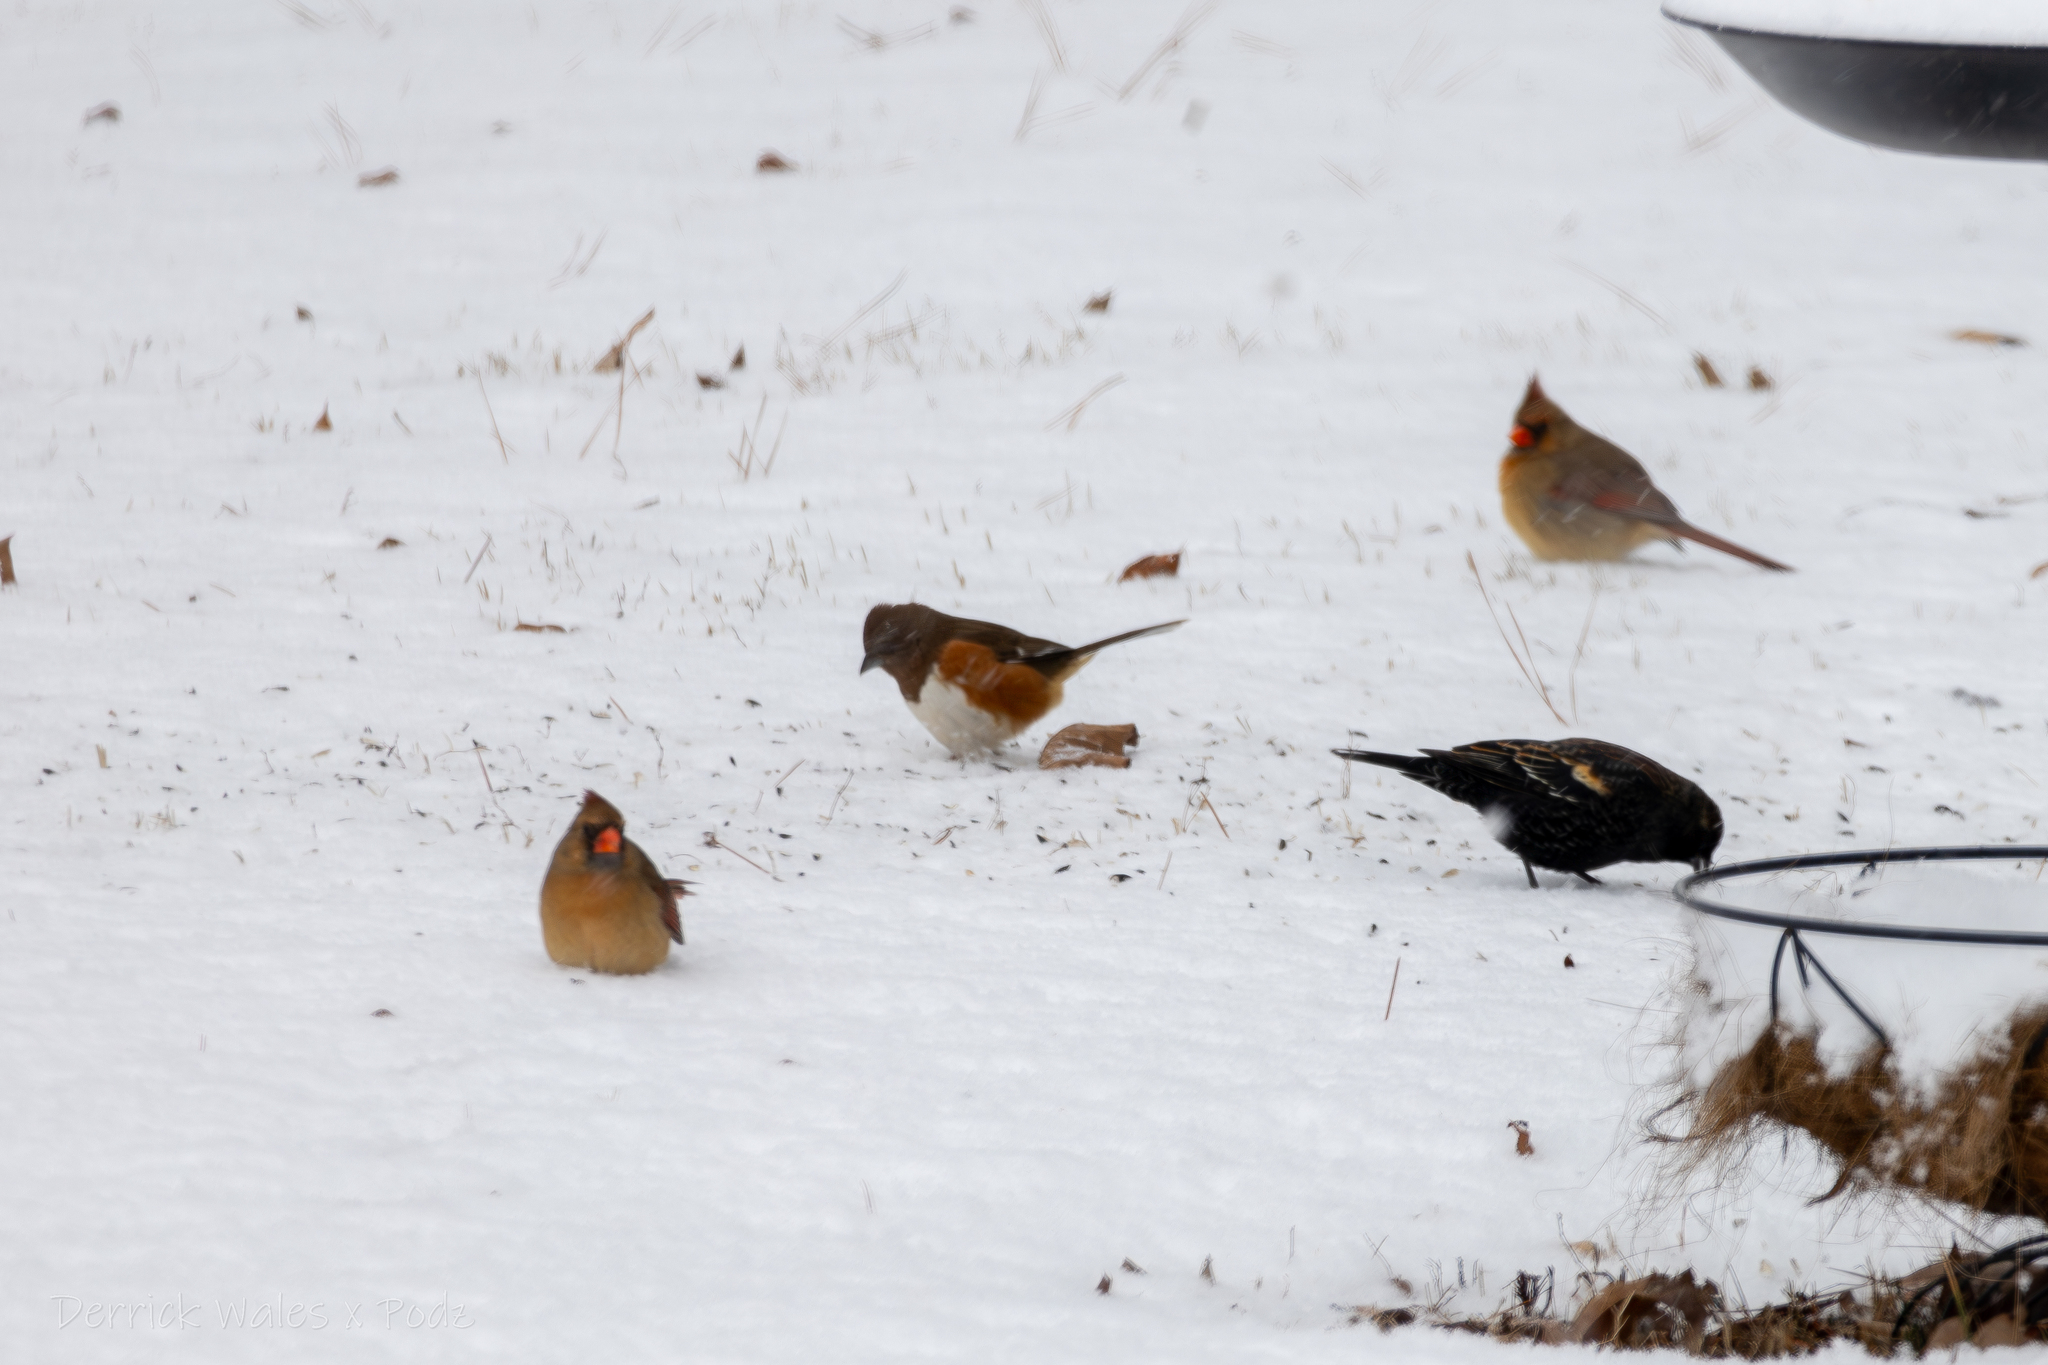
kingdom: Animalia
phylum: Chordata
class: Aves
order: Passeriformes
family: Passerellidae
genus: Pipilo
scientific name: Pipilo erythrophthalmus
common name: Eastern towhee
